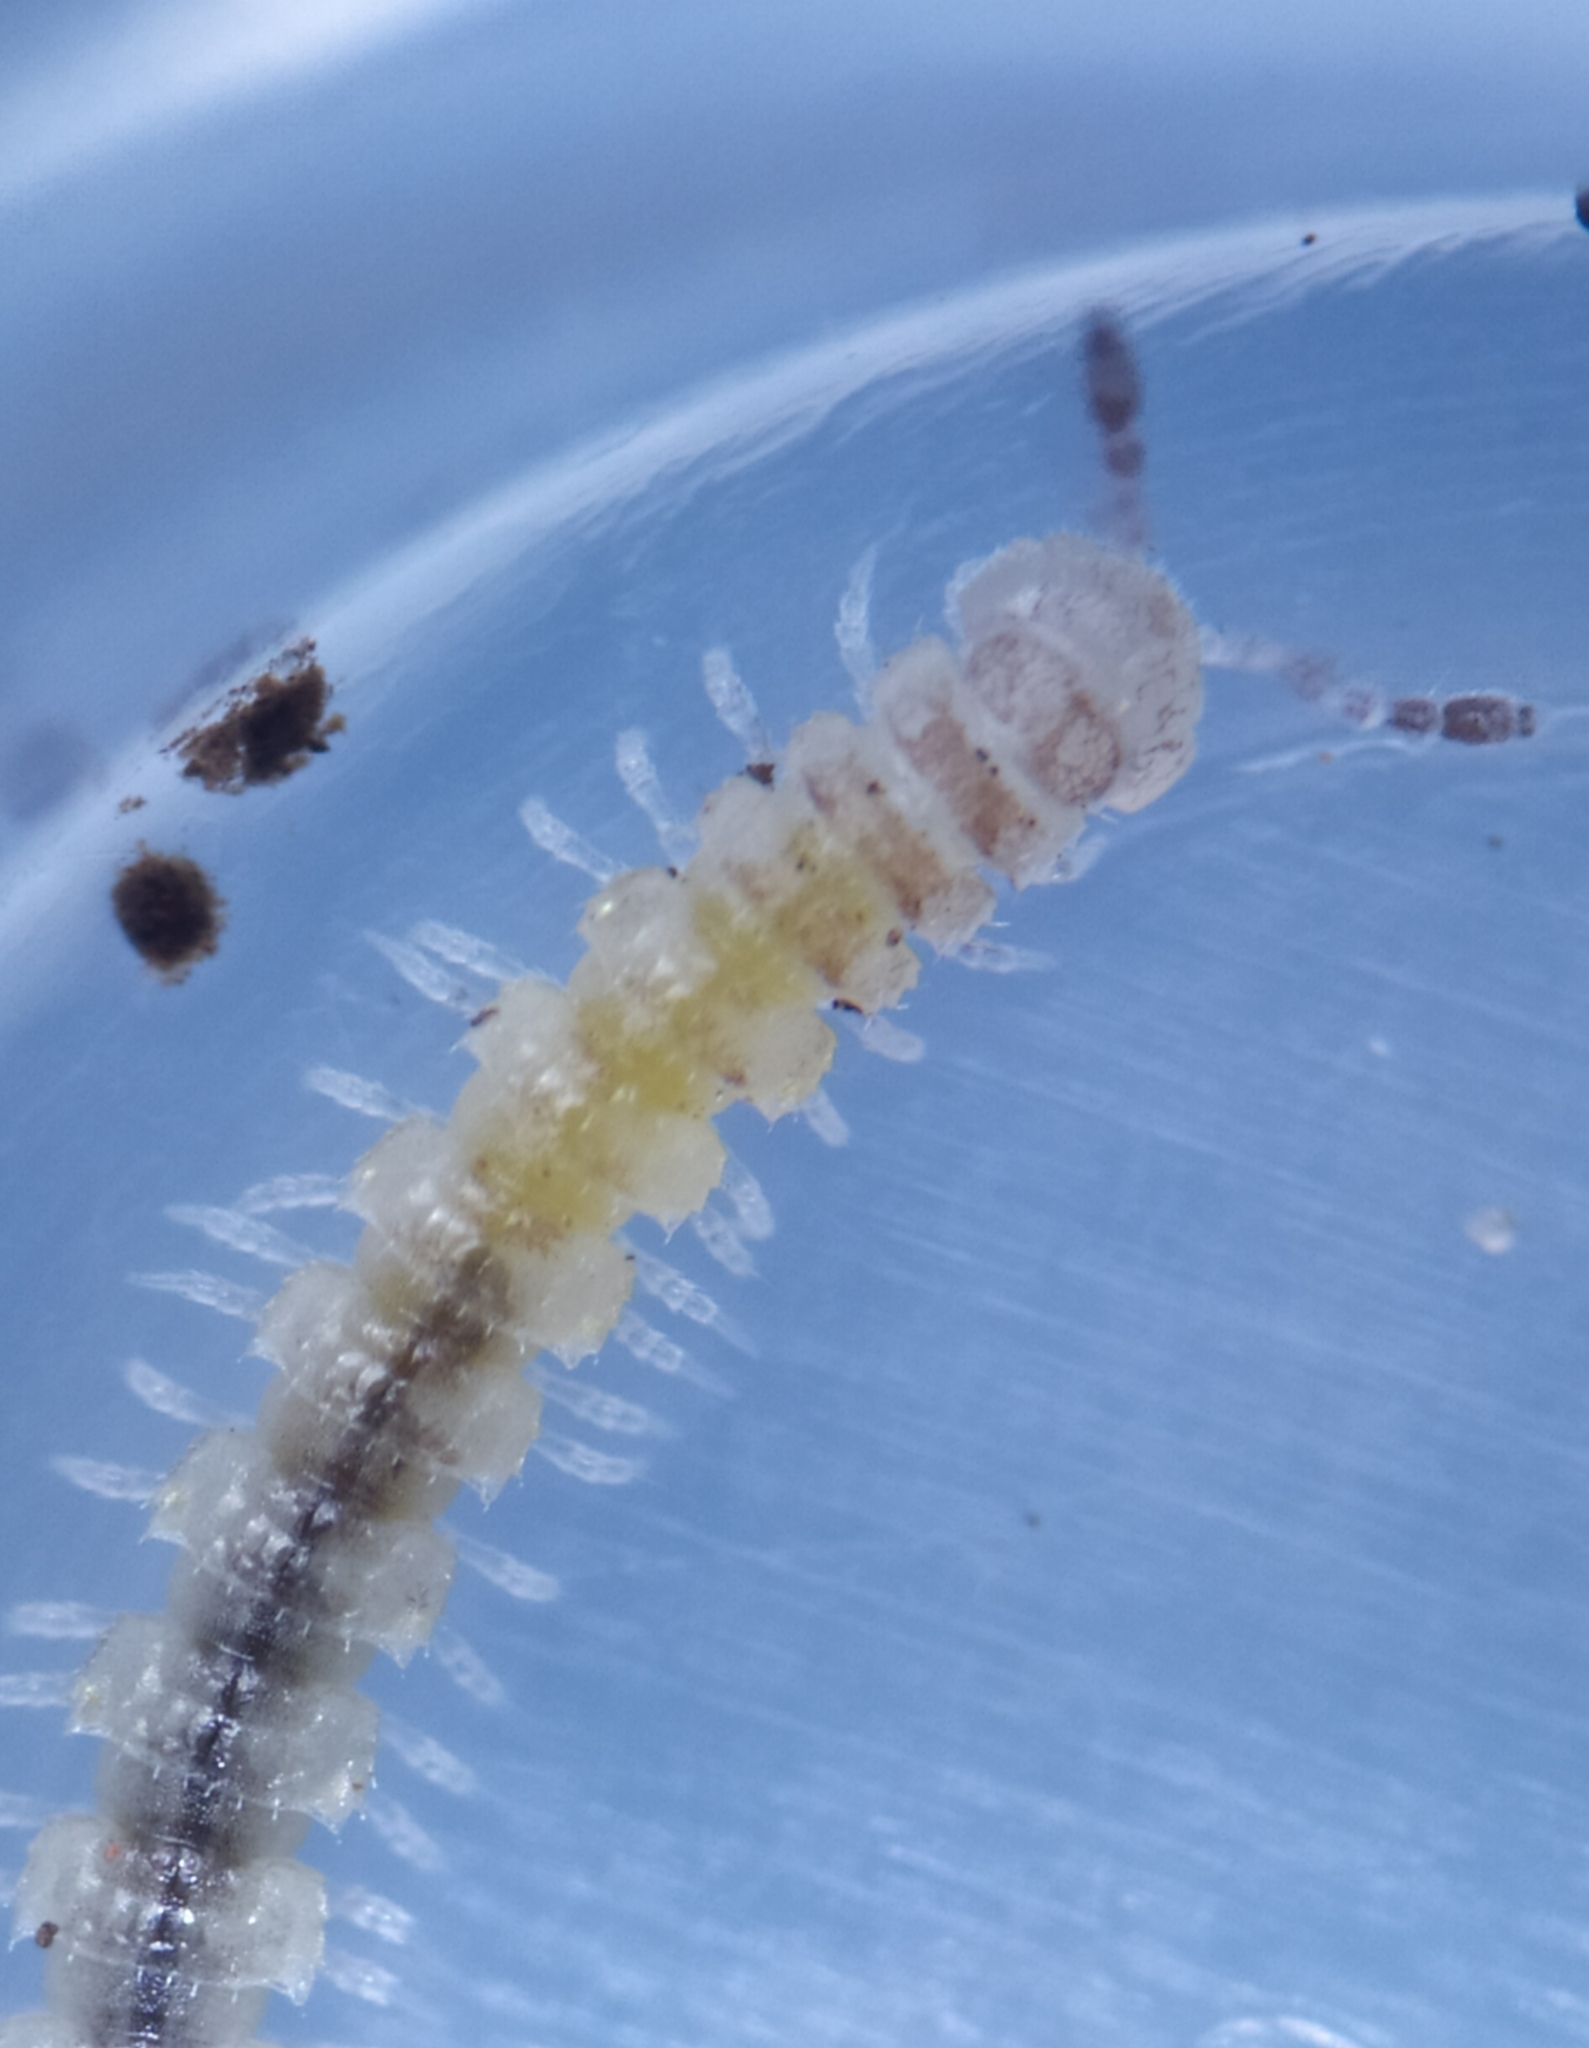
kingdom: Animalia
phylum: Arthropoda
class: Diplopoda
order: Polydesmida
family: Polydesmidae
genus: Brachydesmus
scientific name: Brachydesmus superus
